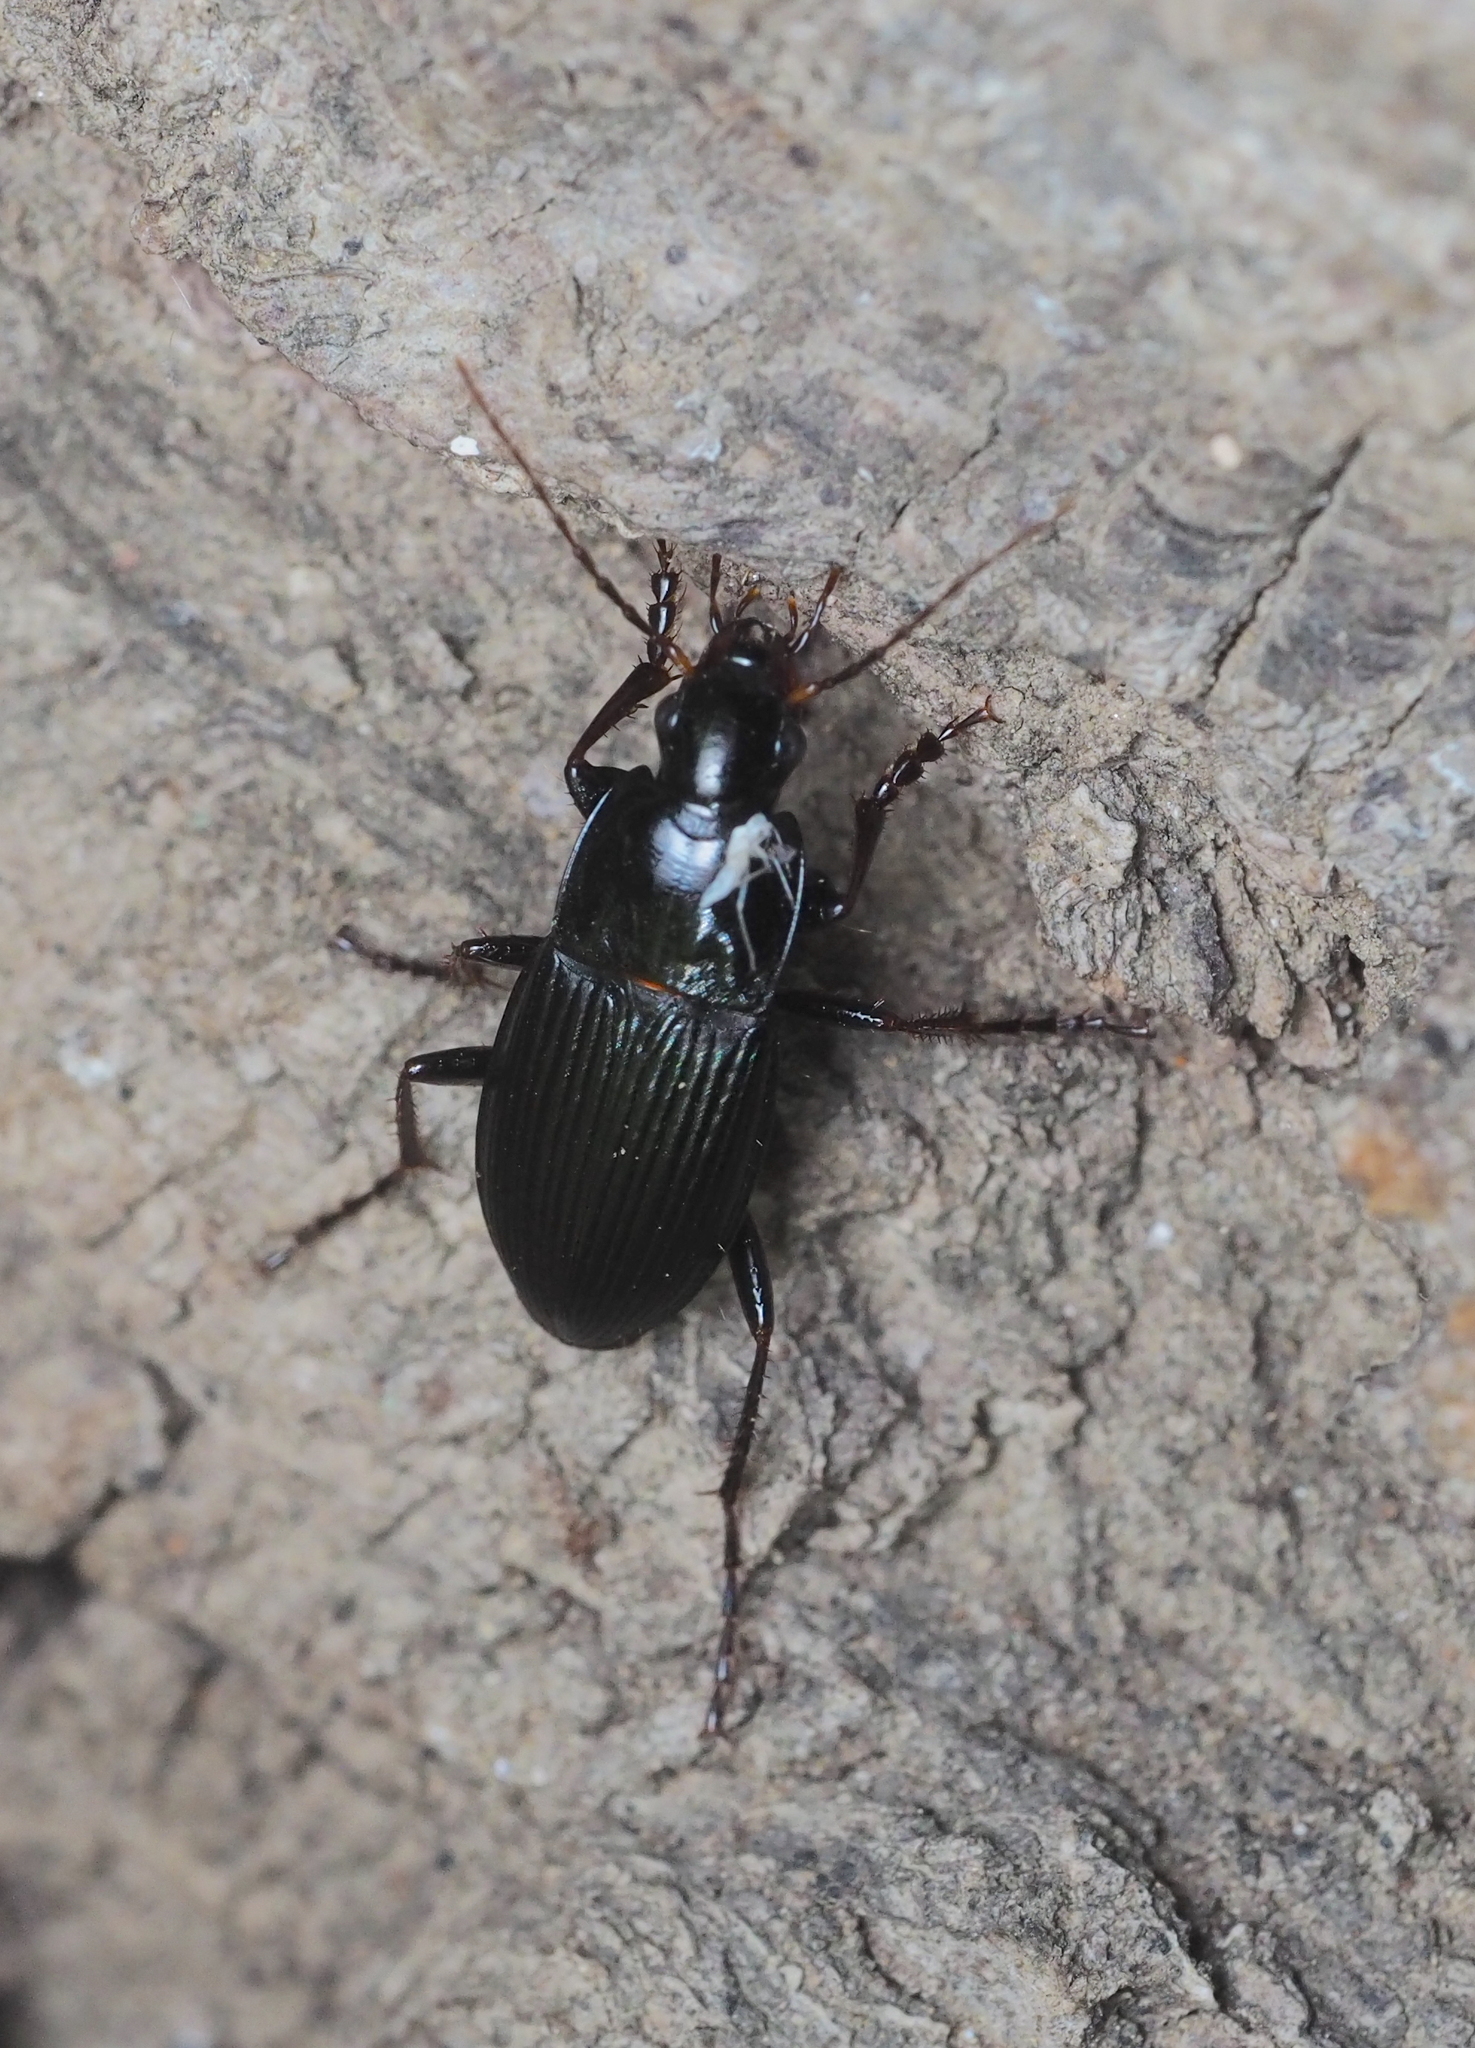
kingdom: Animalia
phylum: Arthropoda
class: Insecta
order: Coleoptera
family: Carabidae
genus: Calathus
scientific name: Calathus fuscipes
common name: Dark-footed harp ground beetle
